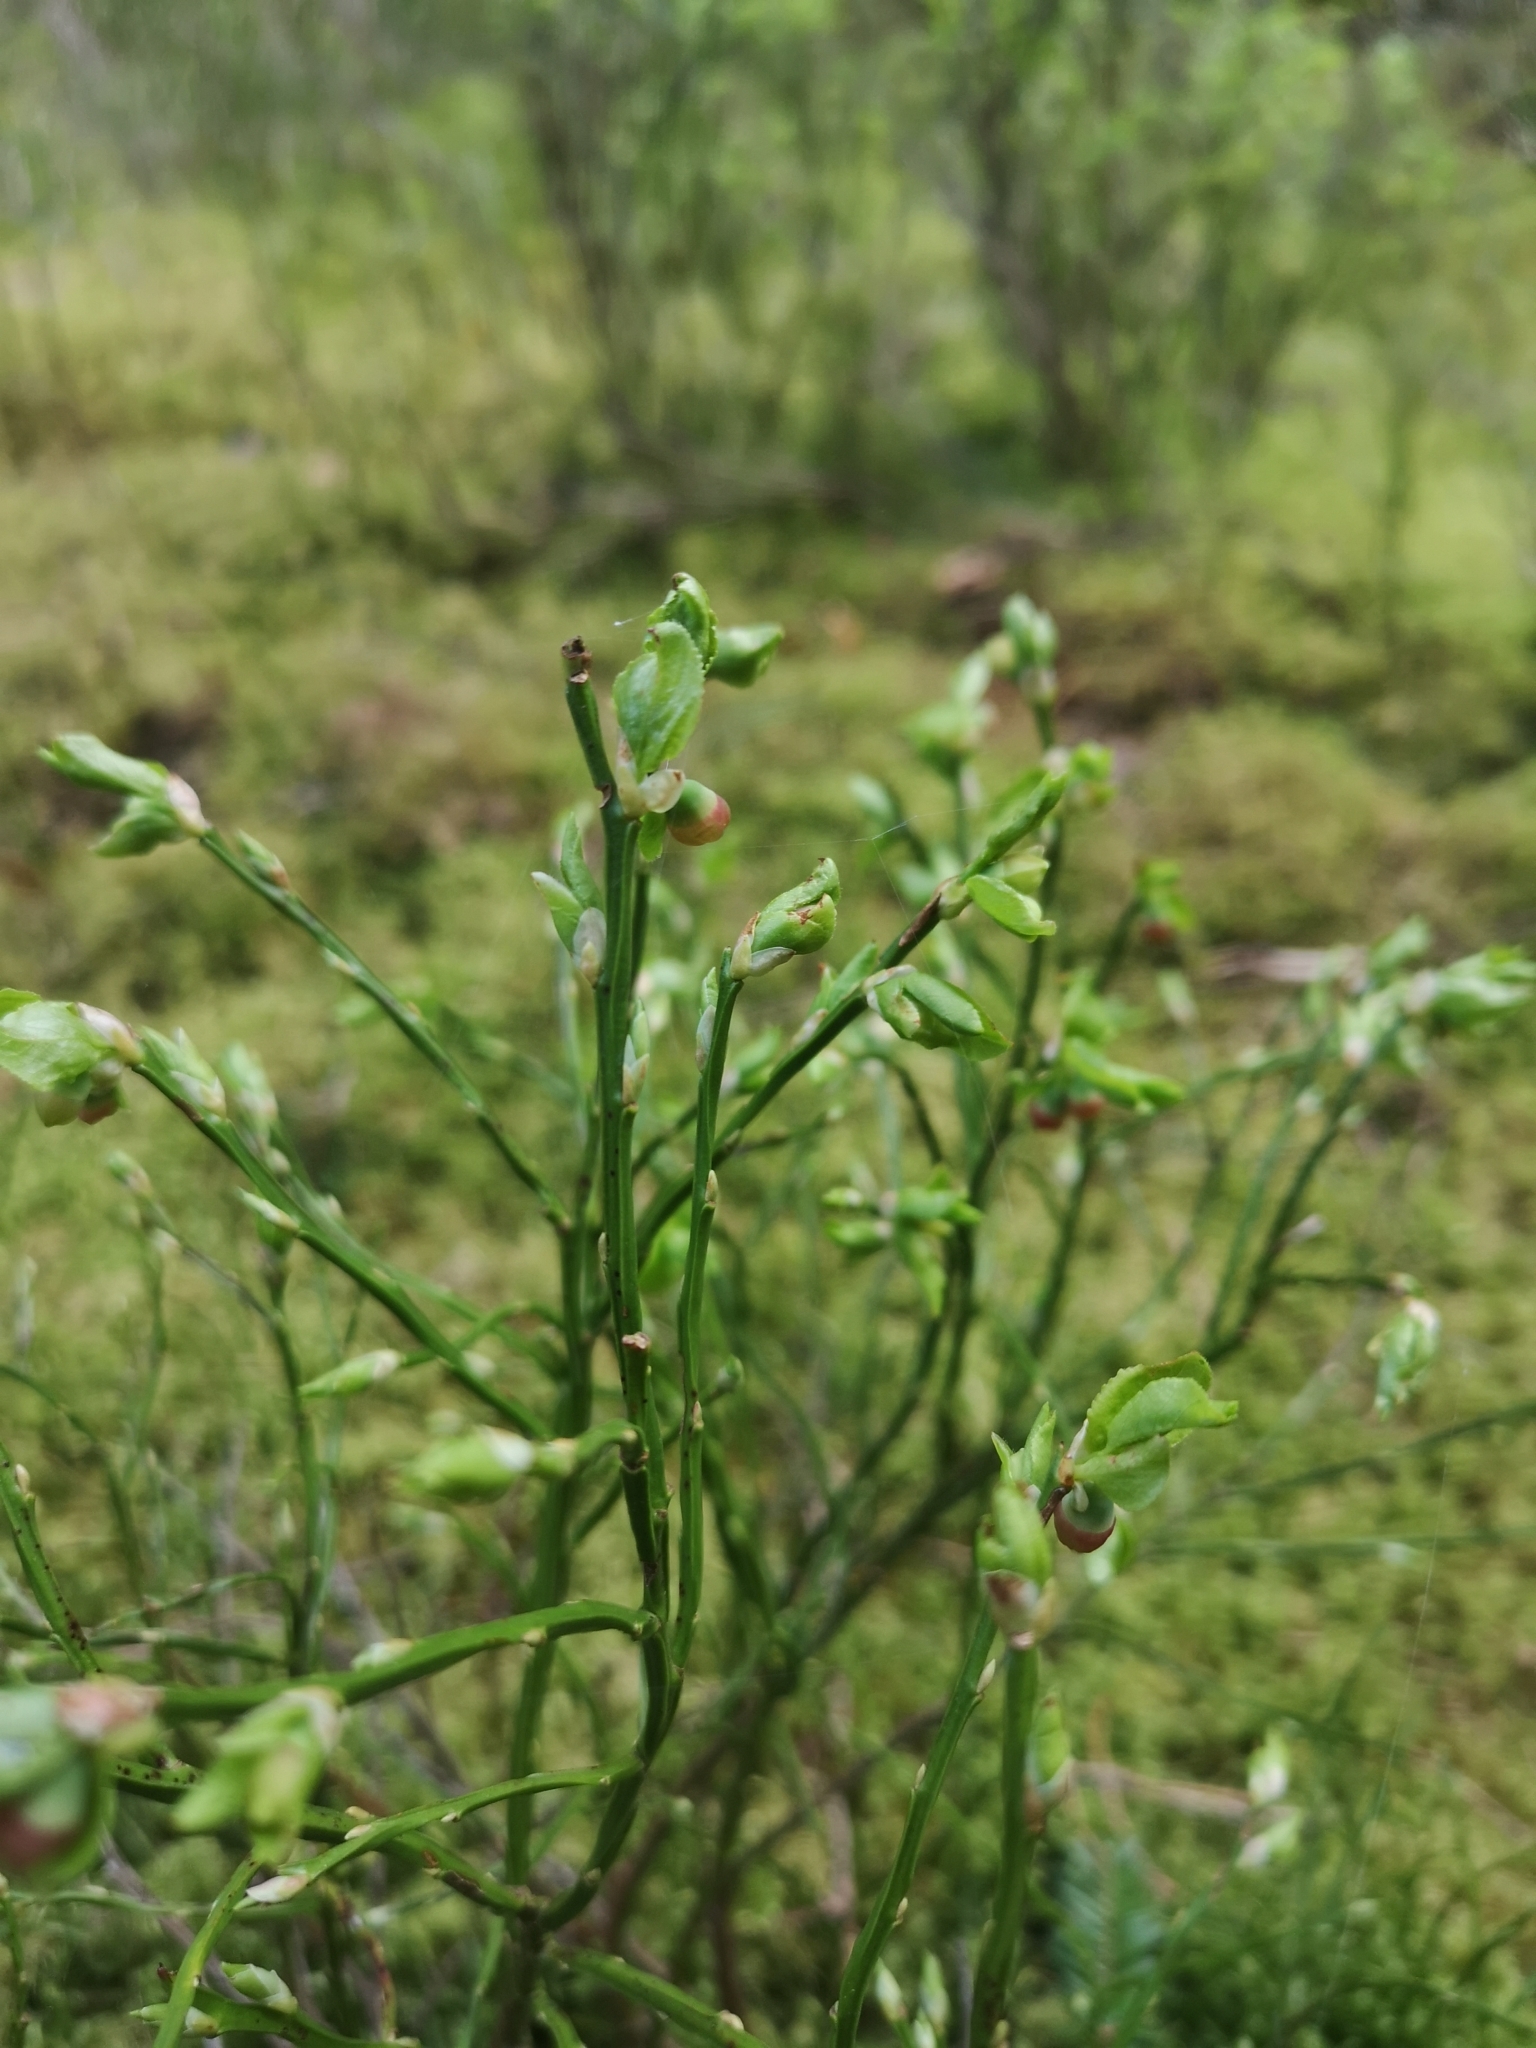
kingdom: Plantae
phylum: Tracheophyta
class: Magnoliopsida
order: Ericales
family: Ericaceae
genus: Vaccinium
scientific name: Vaccinium myrtillus
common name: Bilberry
